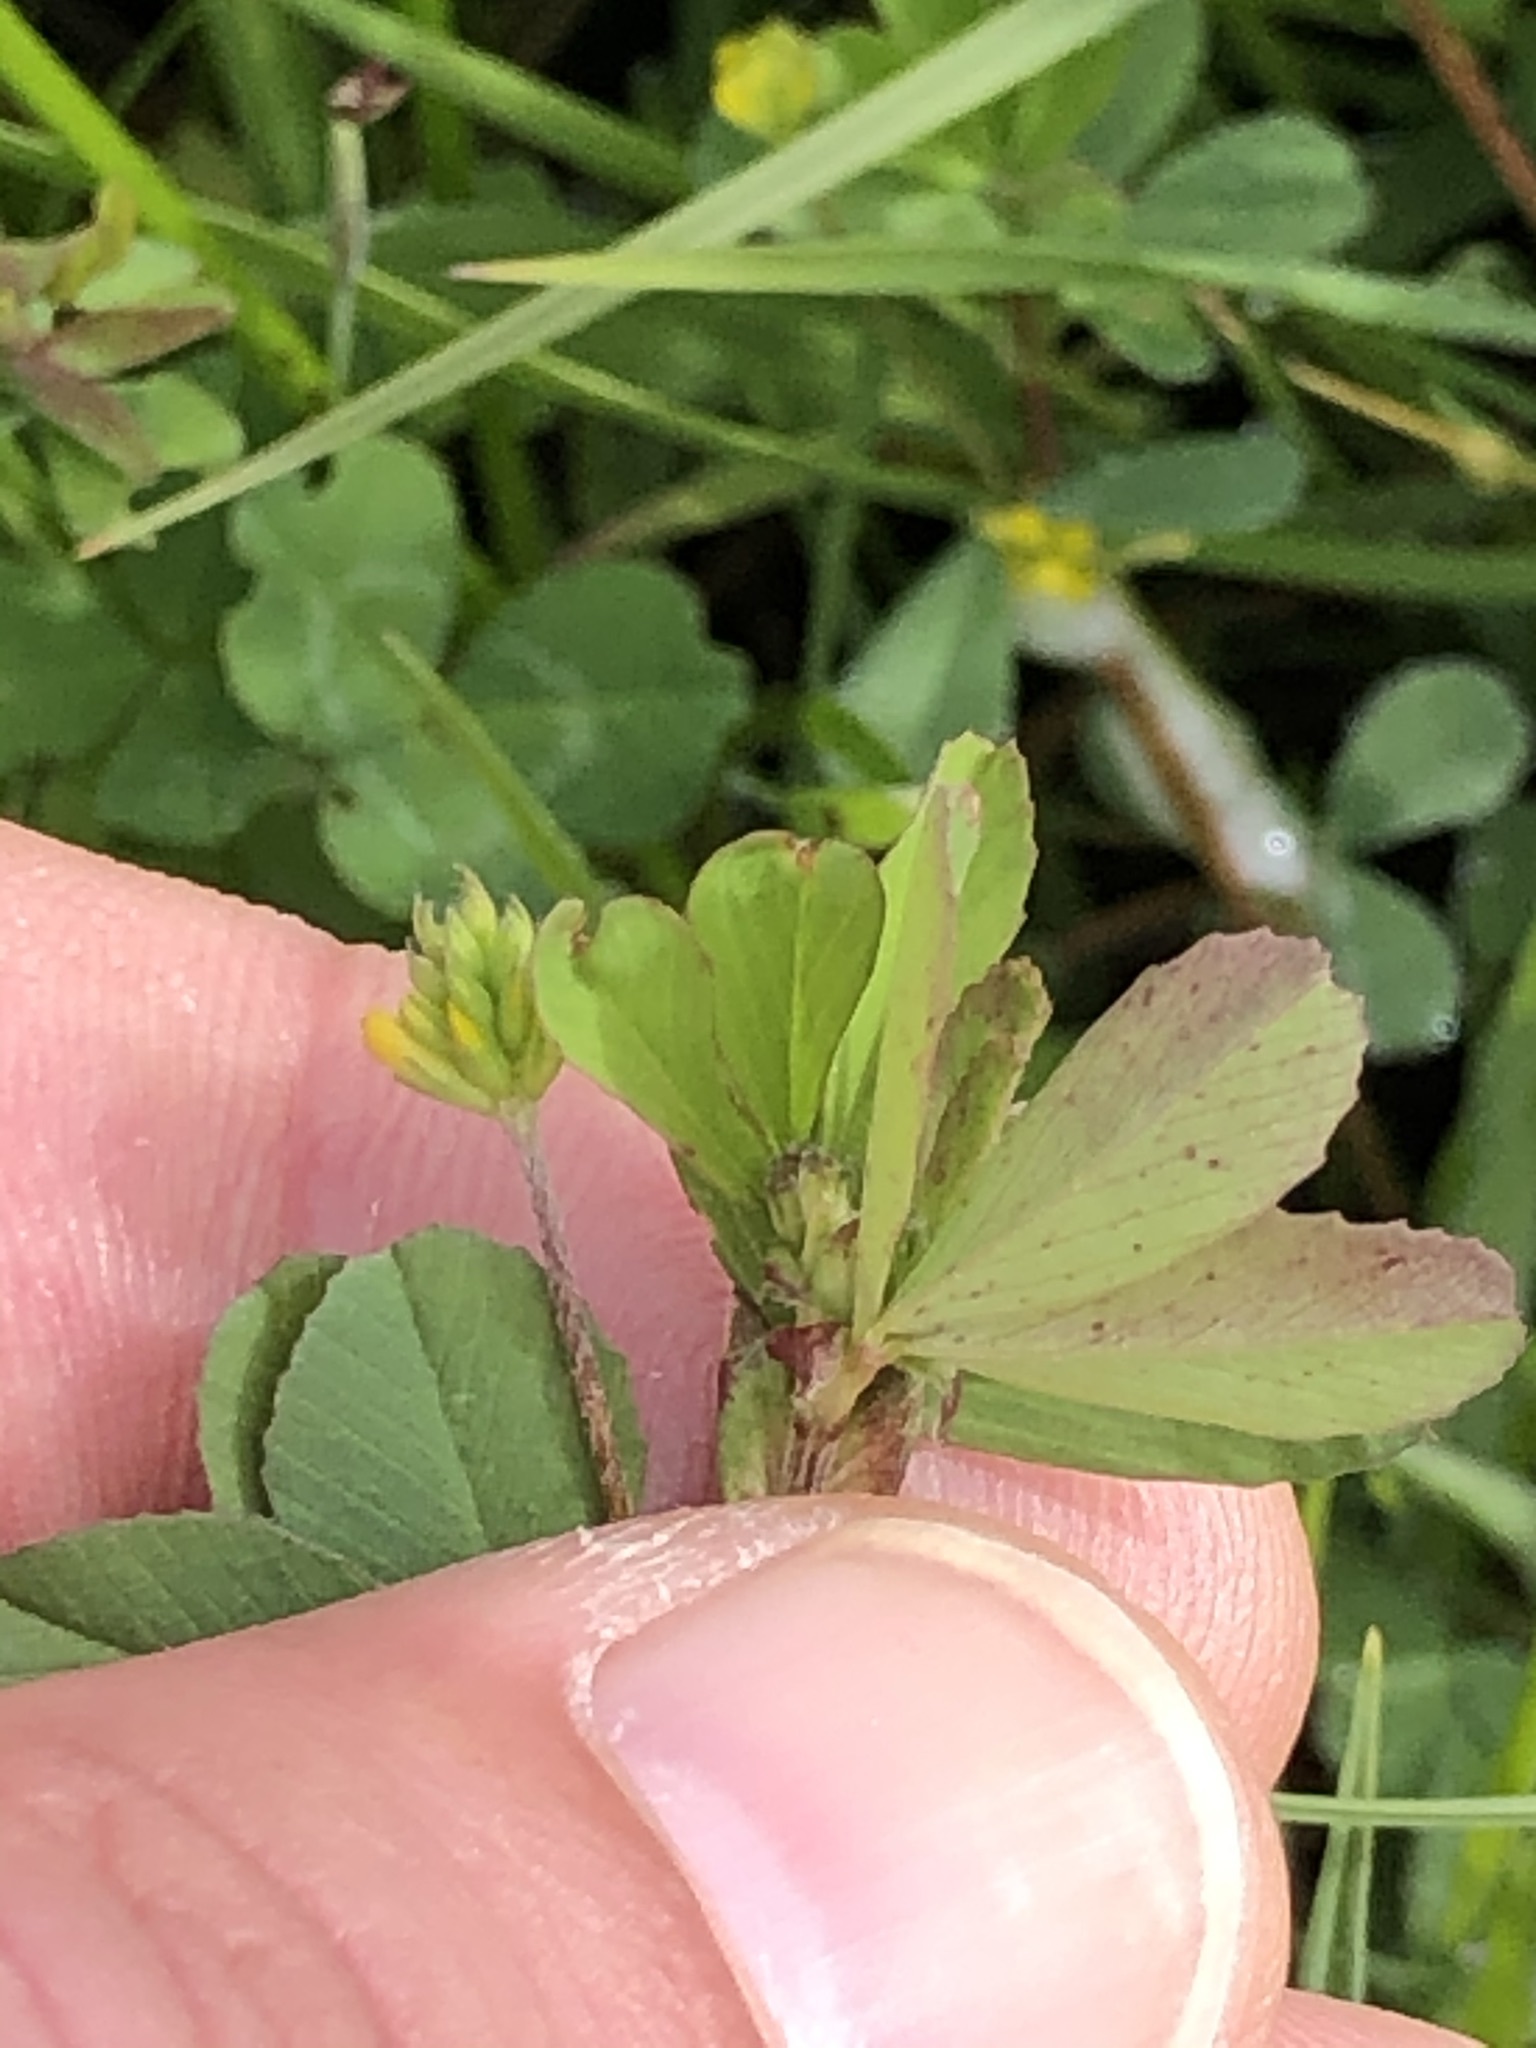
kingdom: Plantae
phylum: Tracheophyta
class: Magnoliopsida
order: Fabales
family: Fabaceae
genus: Trifolium
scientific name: Trifolium dubium
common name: Suckling clover
